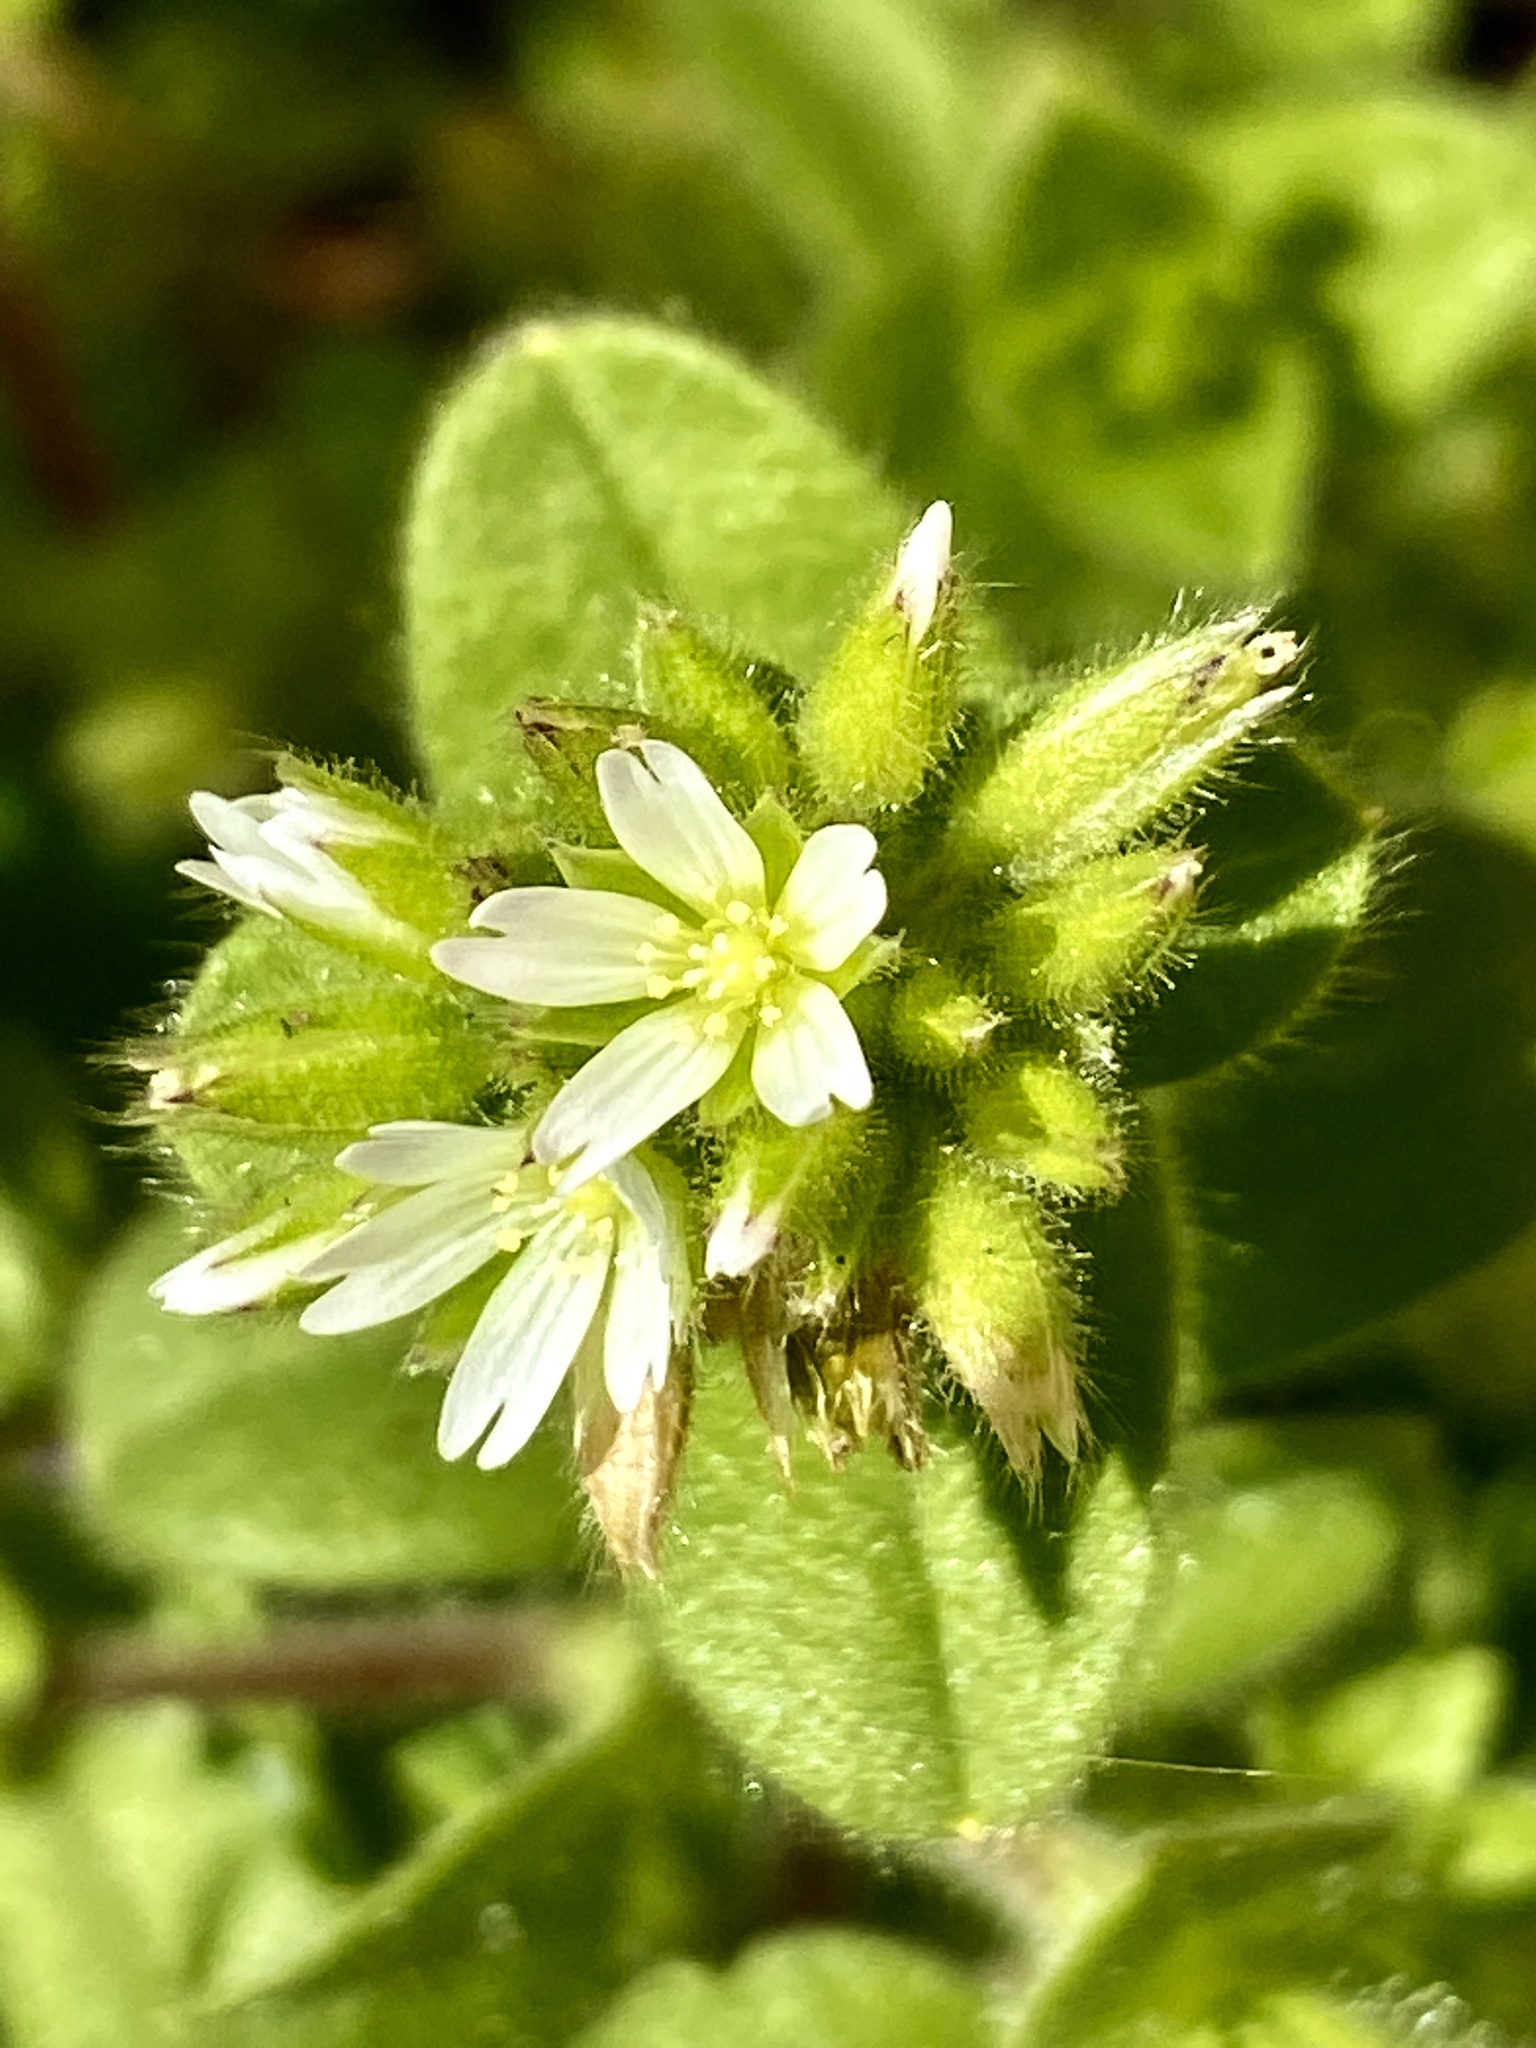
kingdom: Plantae
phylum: Tracheophyta
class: Magnoliopsida
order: Caryophyllales
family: Caryophyllaceae
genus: Cerastium
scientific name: Cerastium glomeratum
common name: Sticky chickweed
